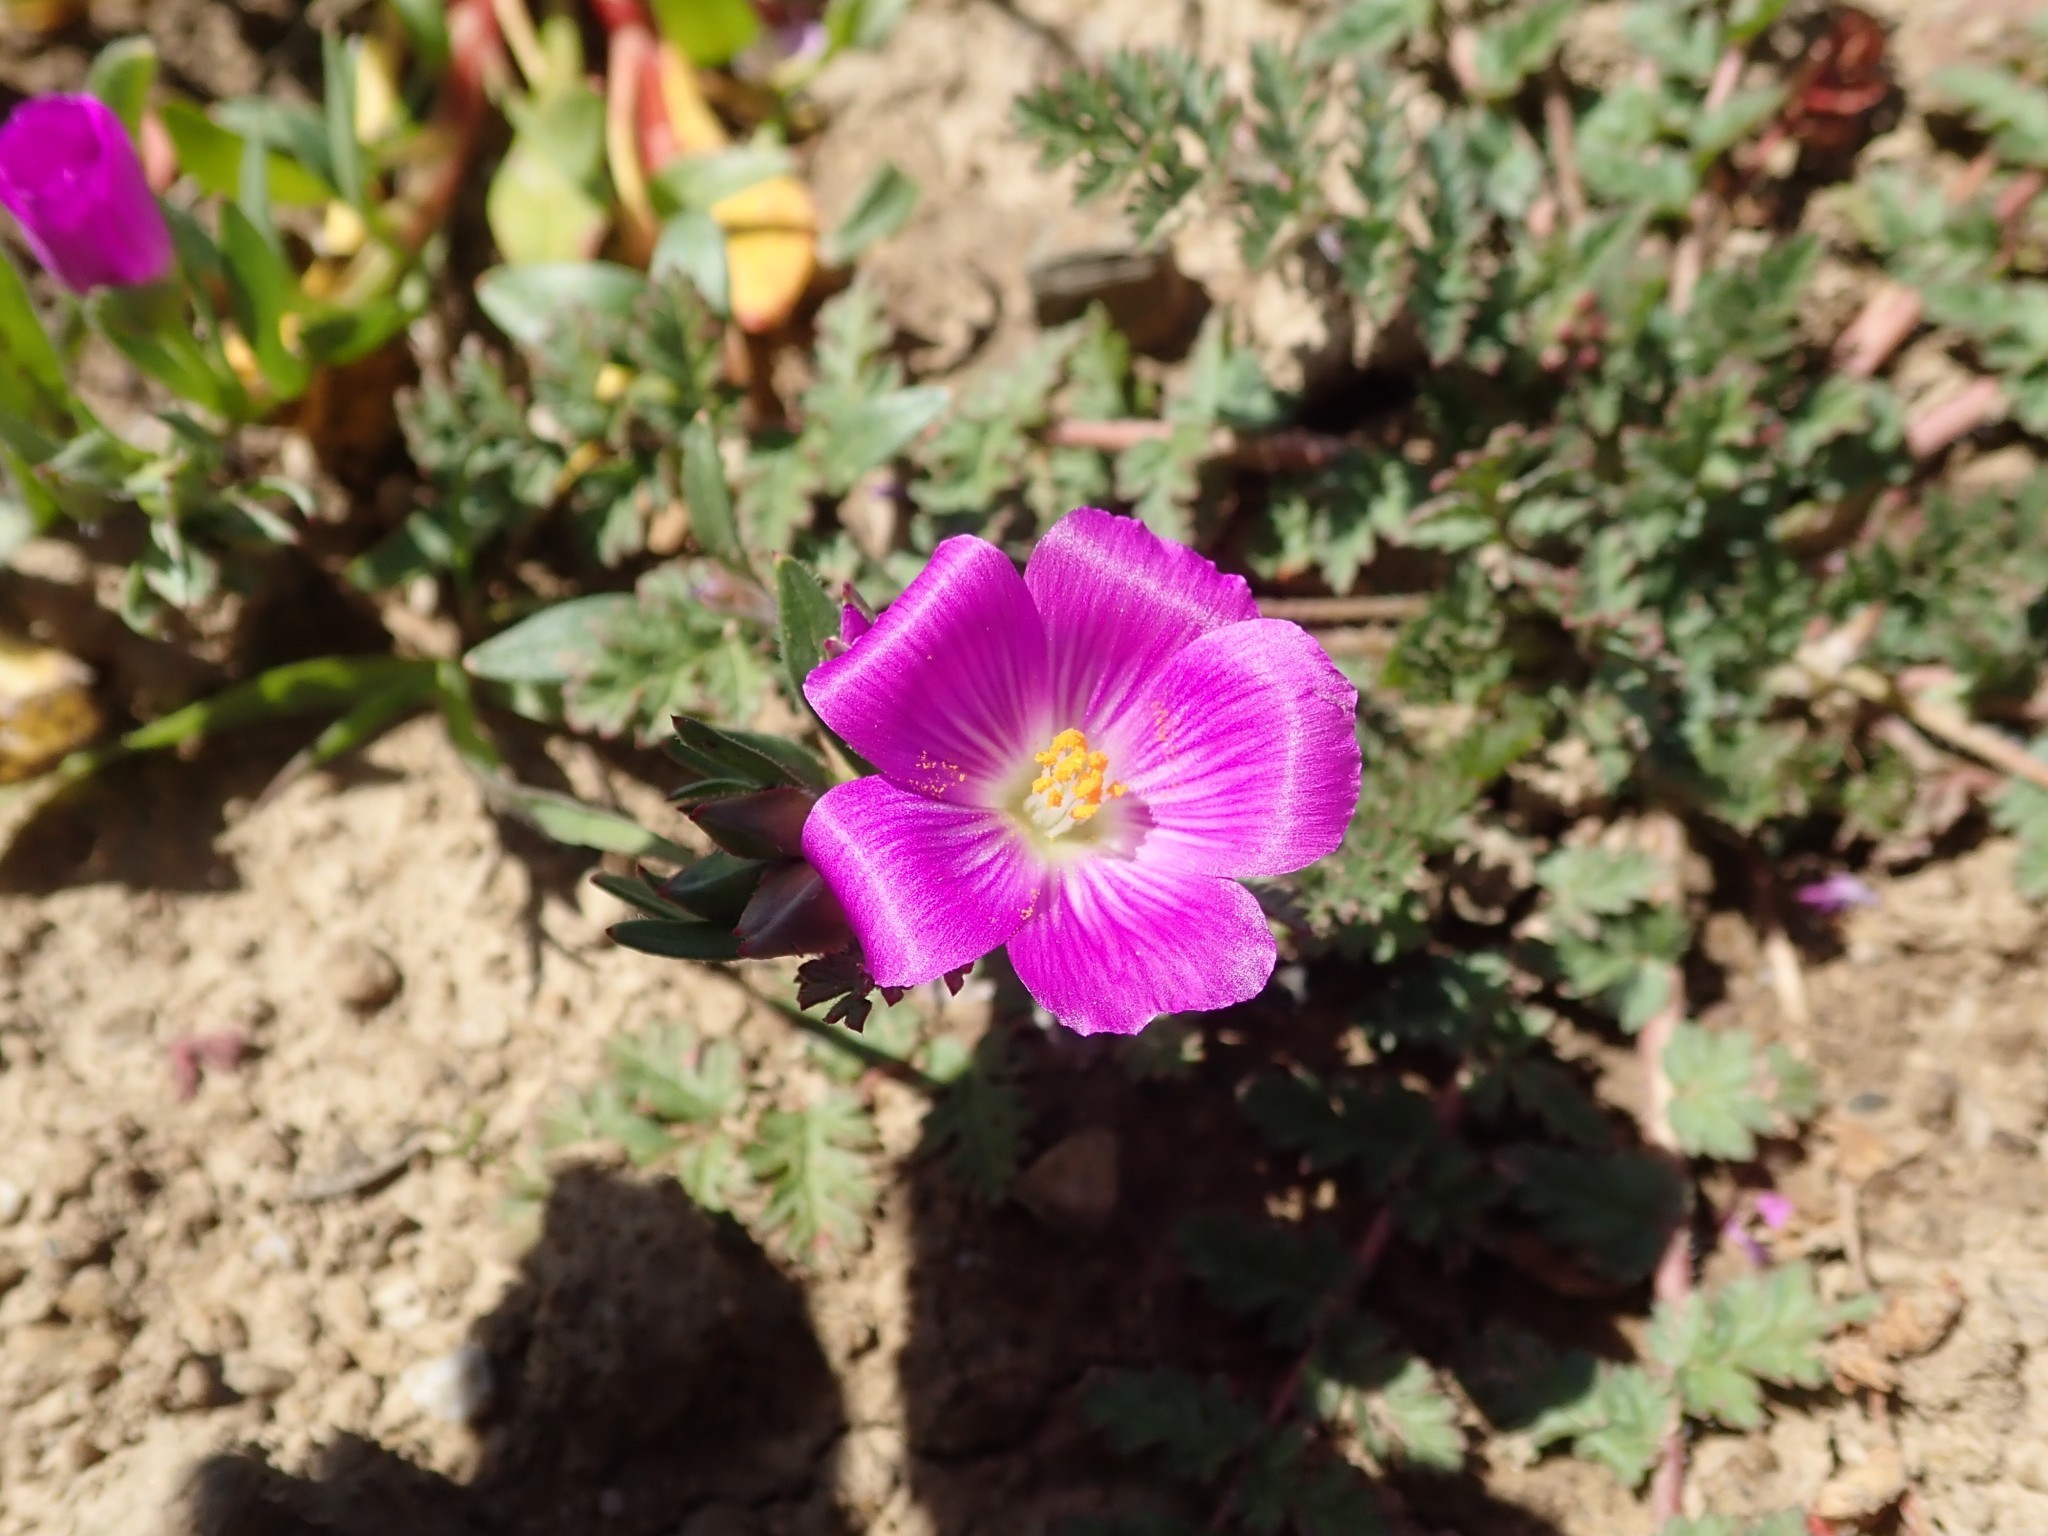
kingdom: Plantae
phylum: Tracheophyta
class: Magnoliopsida
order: Caryophyllales
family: Montiaceae
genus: Calandrinia
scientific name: Calandrinia menziesii
